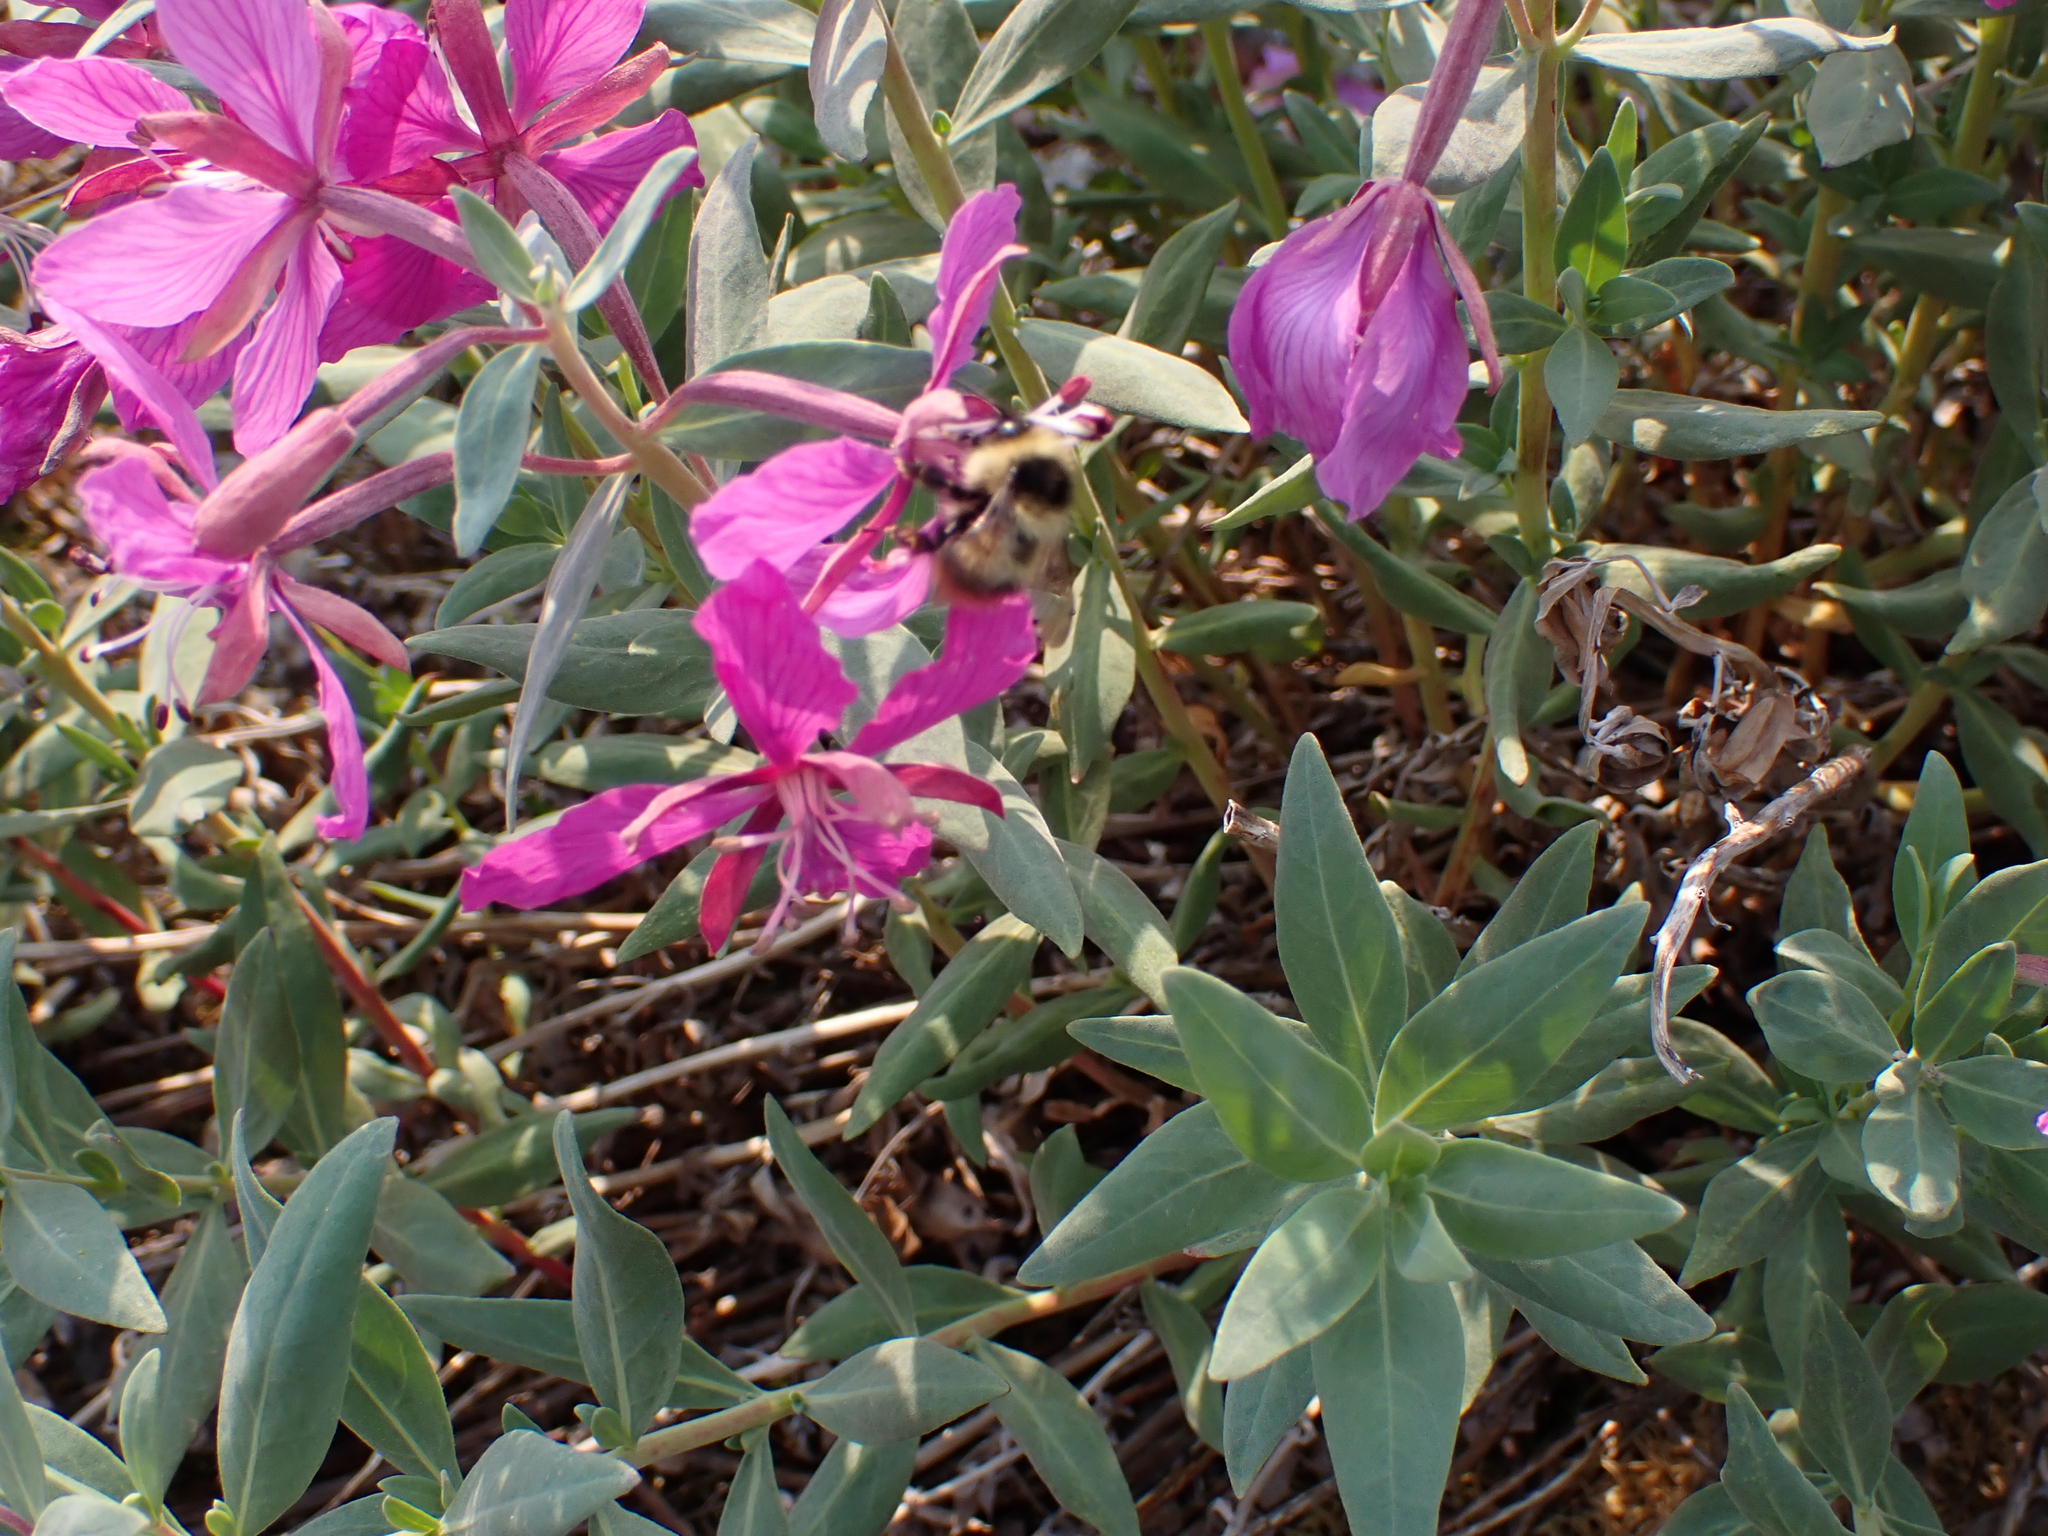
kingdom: Animalia
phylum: Arthropoda
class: Insecta
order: Hymenoptera
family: Apidae
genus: Bombus
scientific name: Bombus frigidus
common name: Frigid bumble bee
